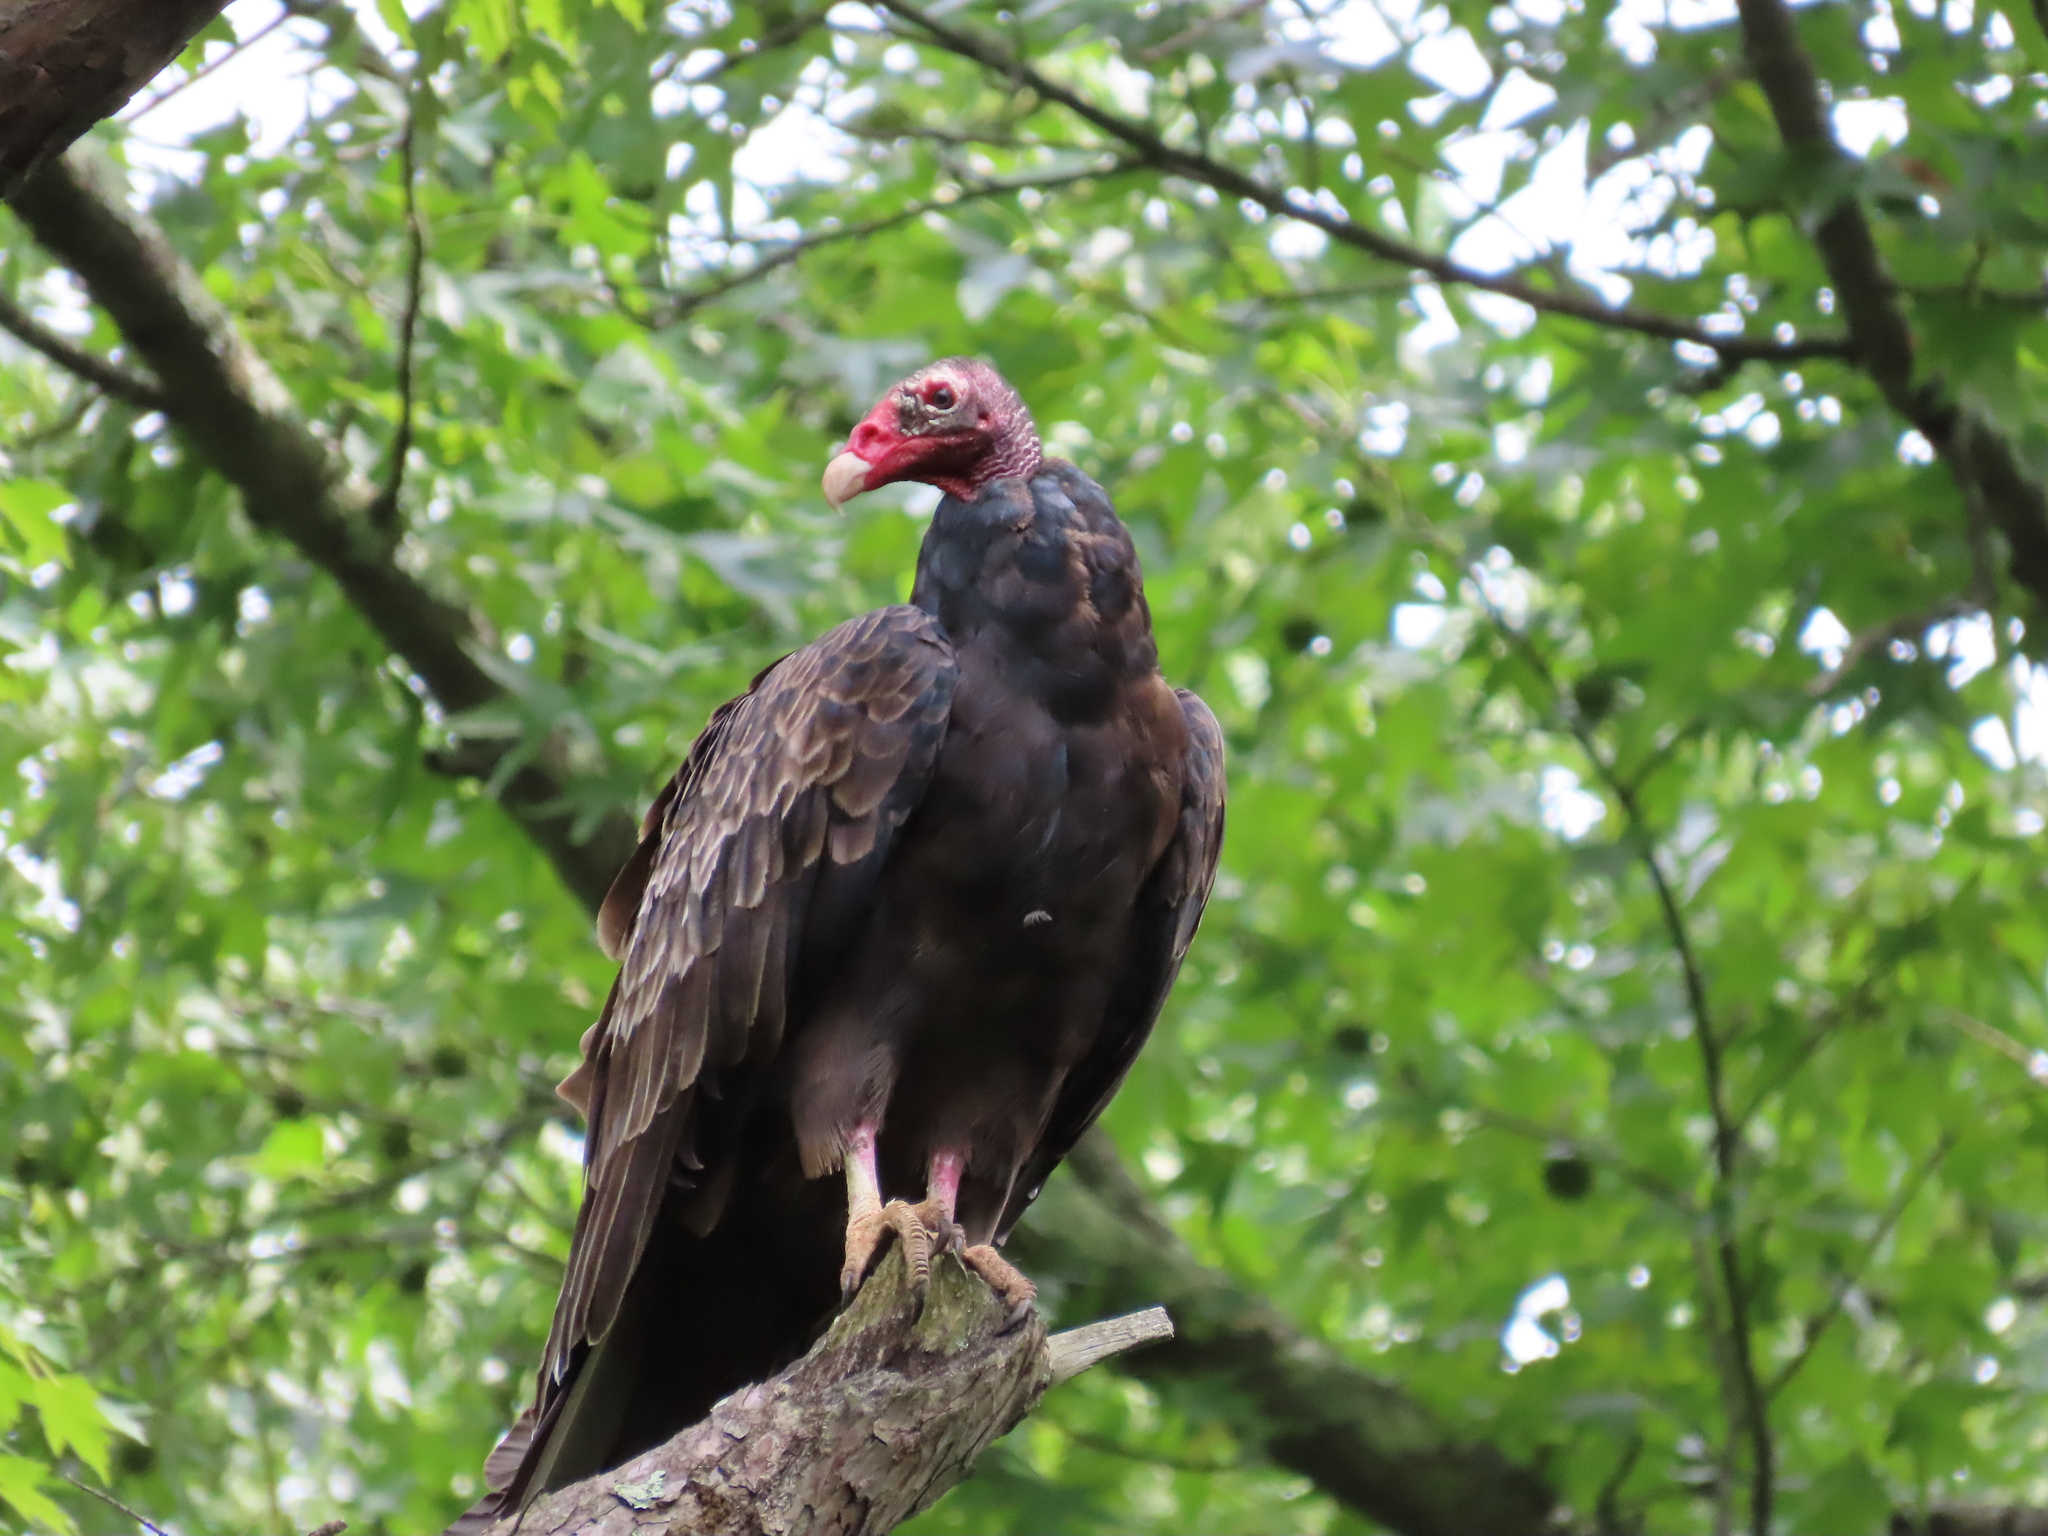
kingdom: Animalia
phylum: Chordata
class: Aves
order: Accipitriformes
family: Cathartidae
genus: Cathartes
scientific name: Cathartes aura
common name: Turkey vulture
